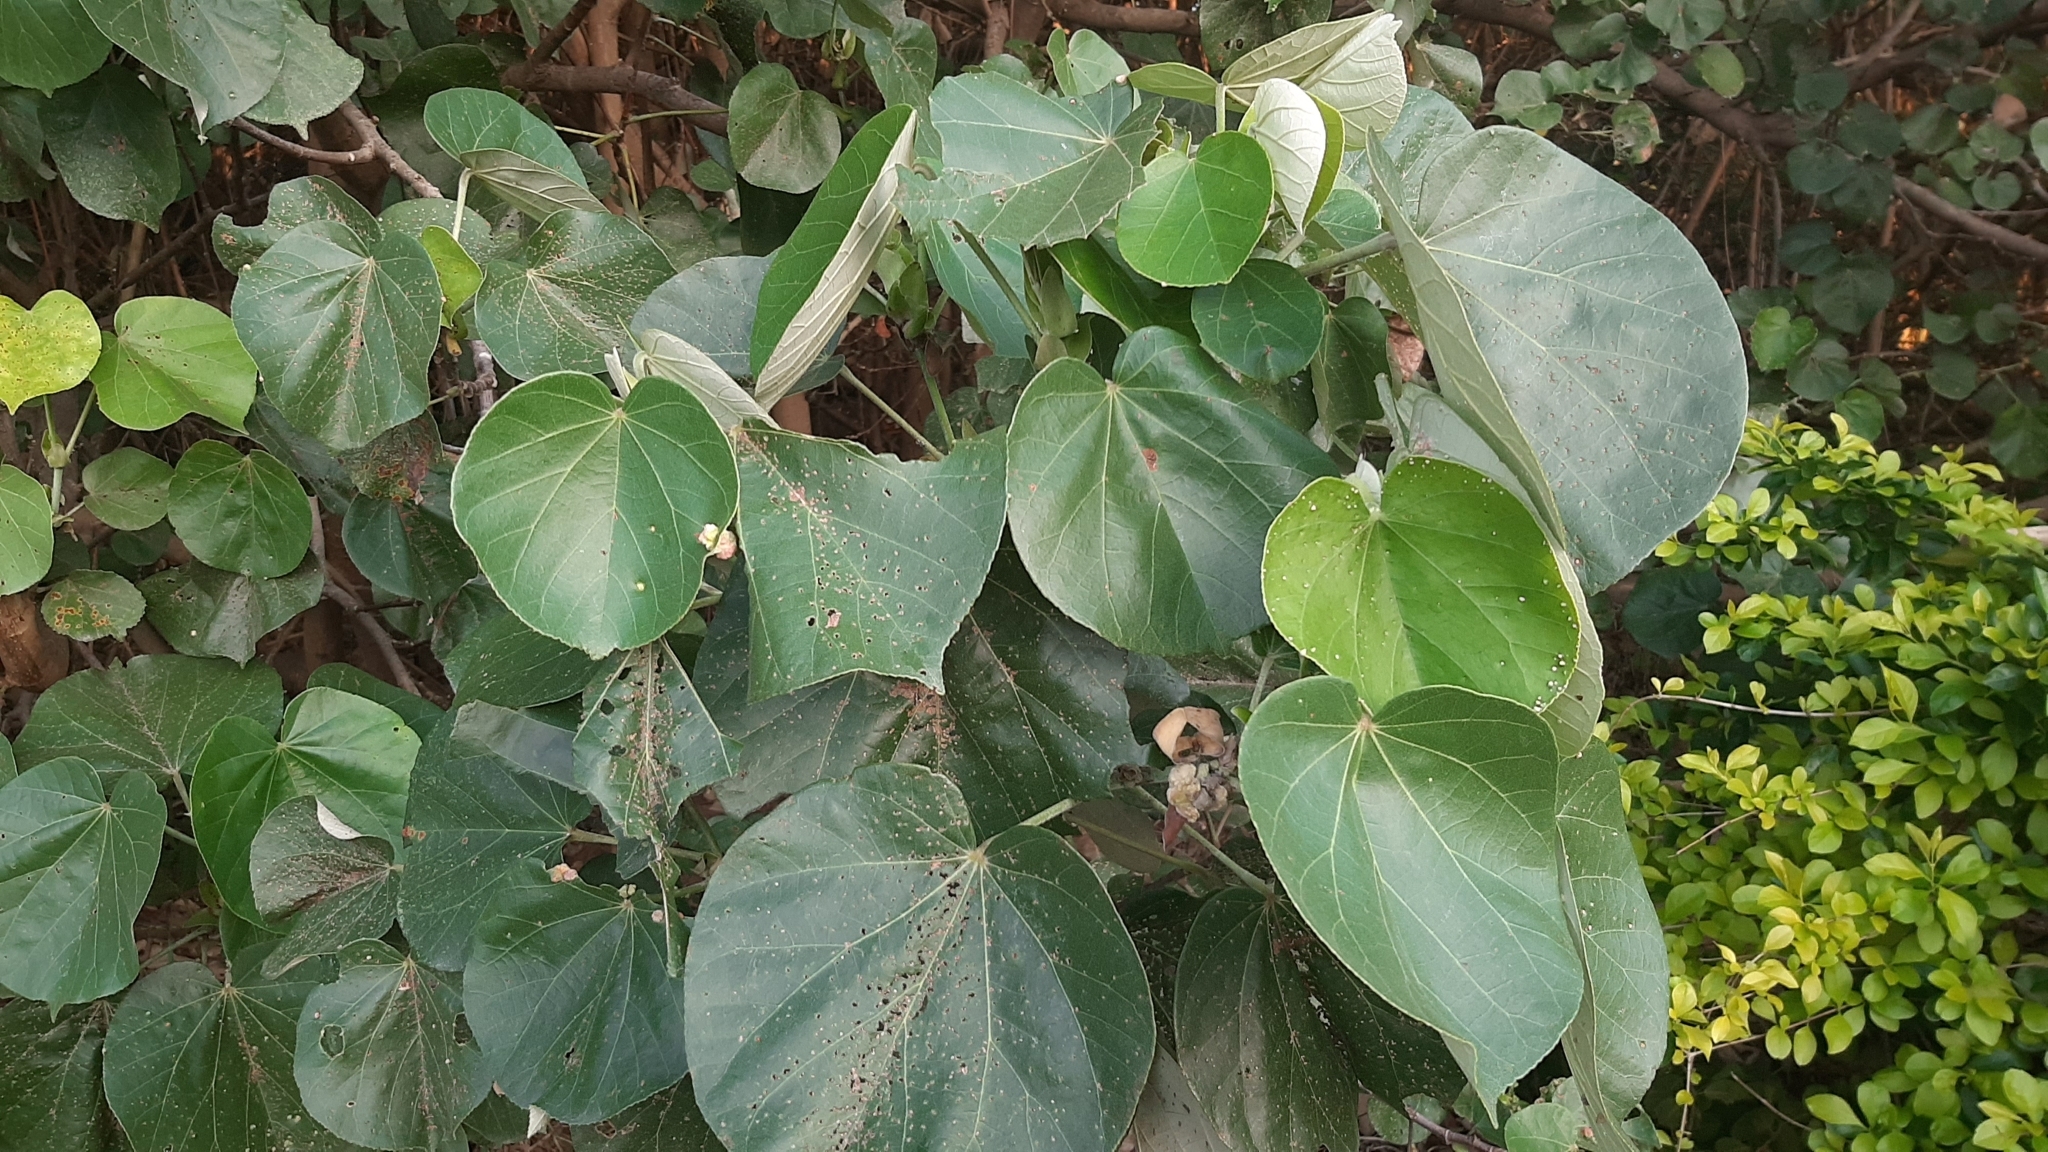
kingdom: Plantae
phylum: Tracheophyta
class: Magnoliopsida
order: Malvales
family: Malvaceae
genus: Talipariti
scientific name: Talipariti tiliaceum
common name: Sea hibiscus
